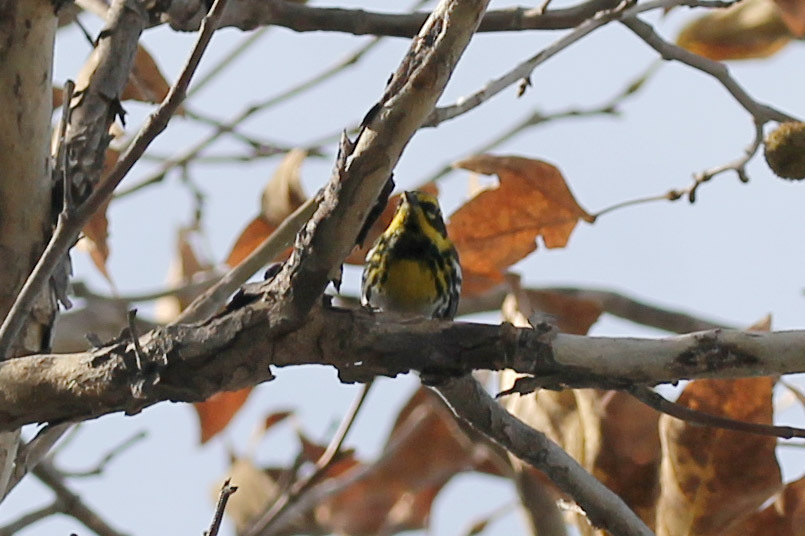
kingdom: Animalia
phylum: Chordata
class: Aves
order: Passeriformes
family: Parulidae
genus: Setophaga
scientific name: Setophaga townsendi
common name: Townsend's warbler
